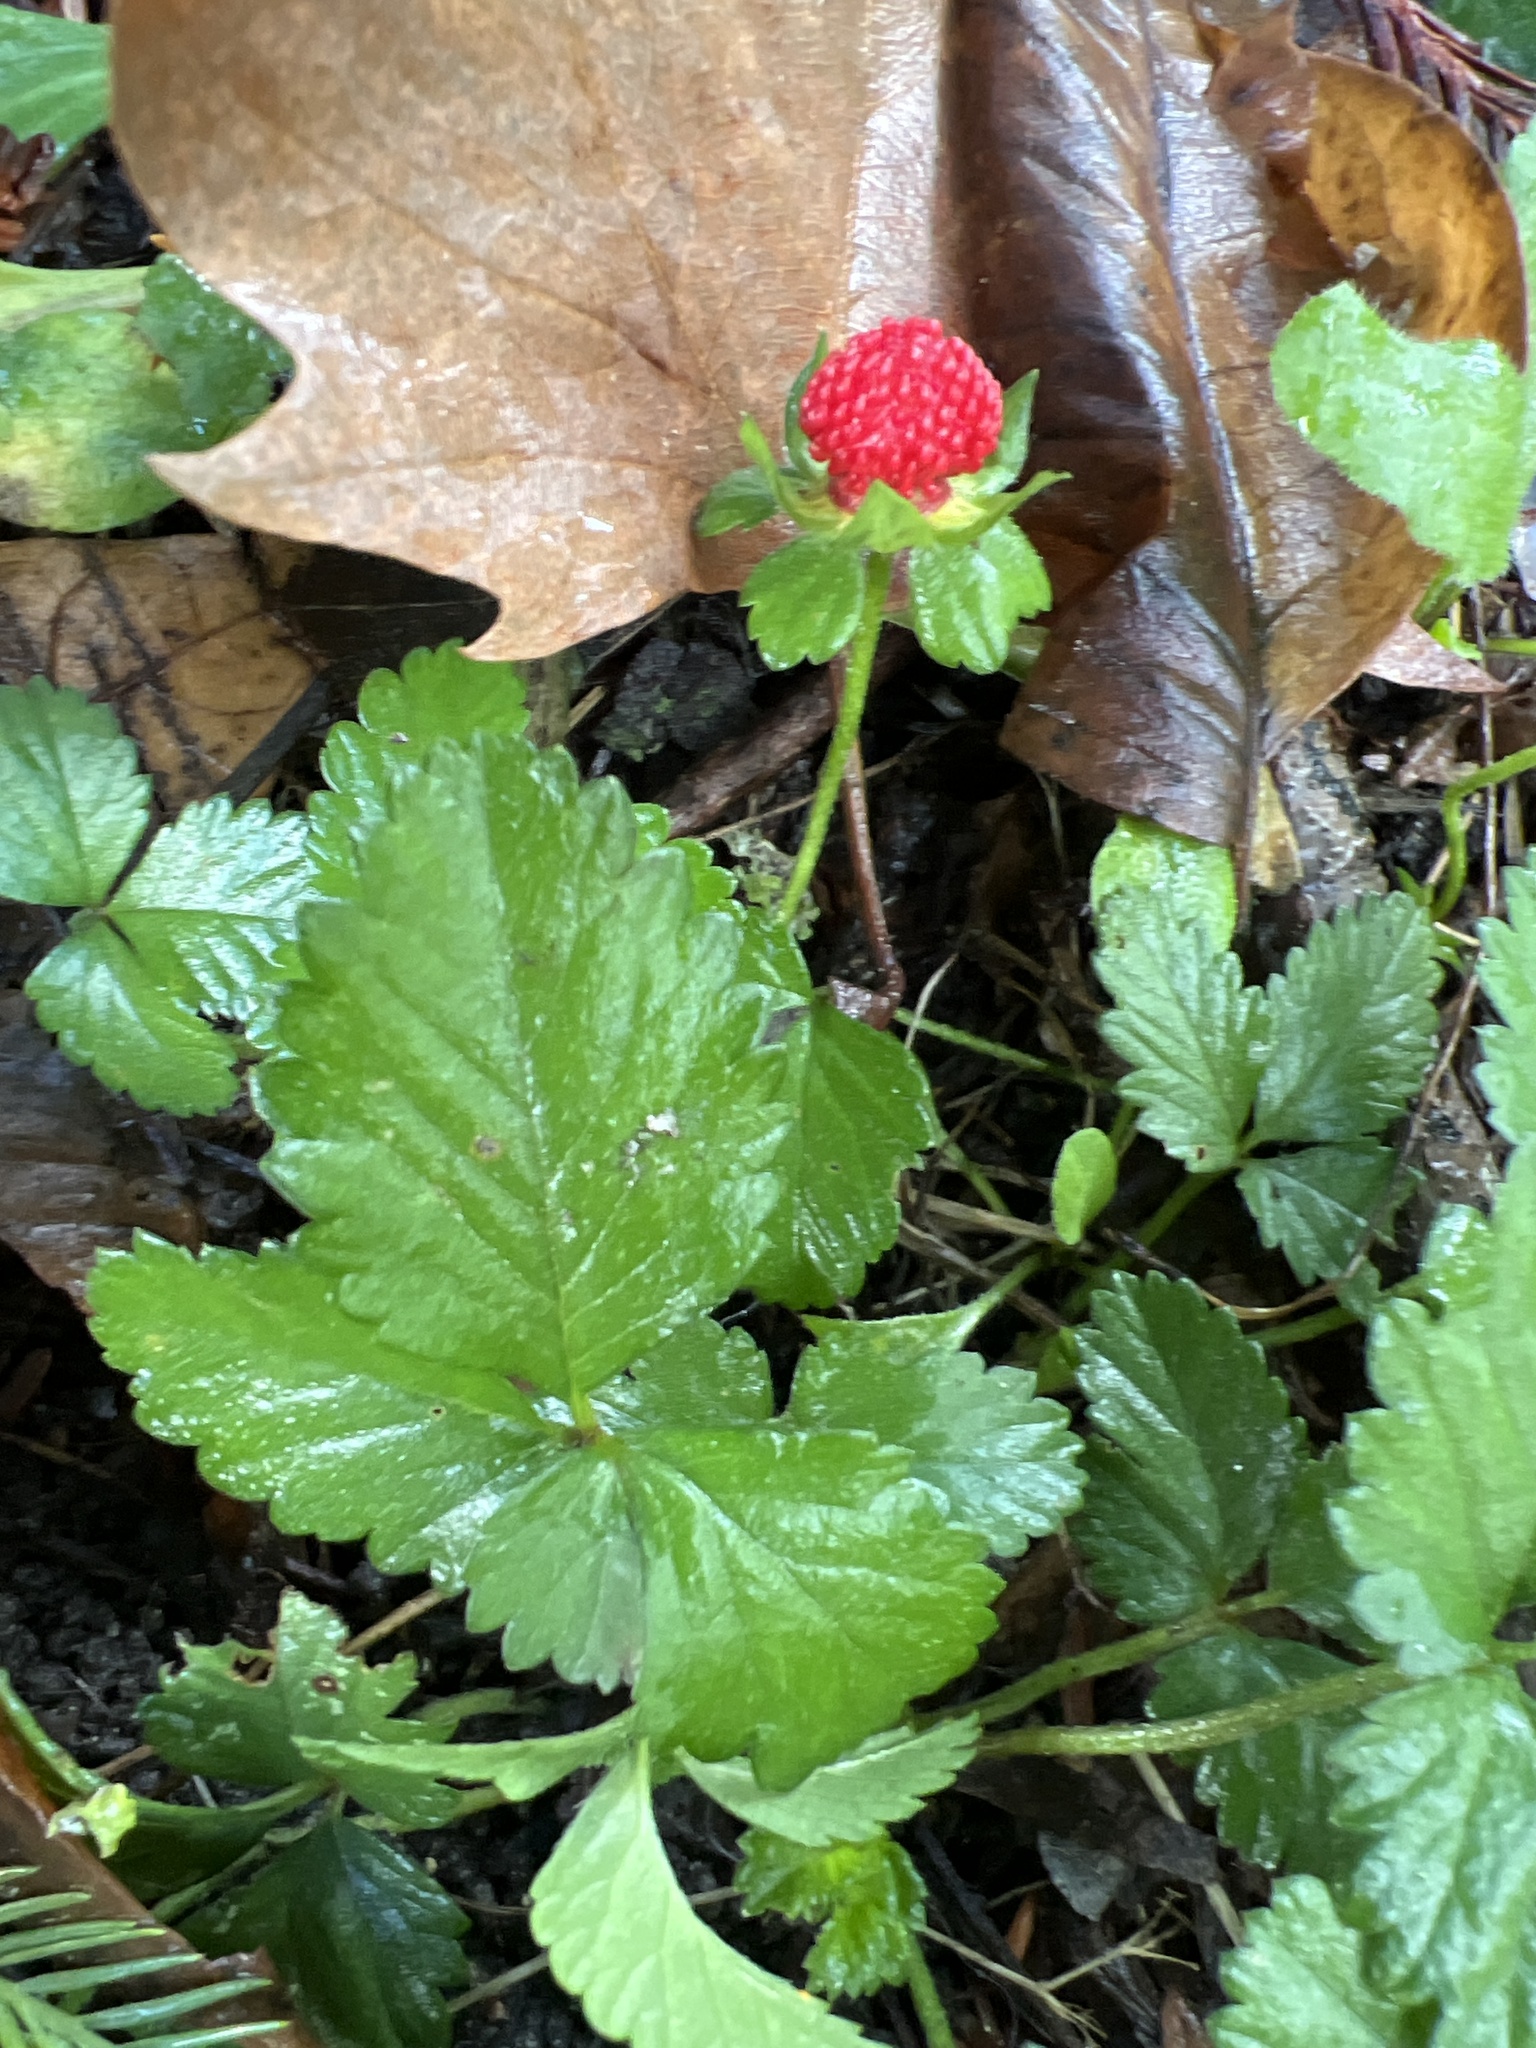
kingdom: Plantae
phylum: Tracheophyta
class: Magnoliopsida
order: Rosales
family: Rosaceae
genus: Potentilla
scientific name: Potentilla indica
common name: Yellow-flowered strawberry
